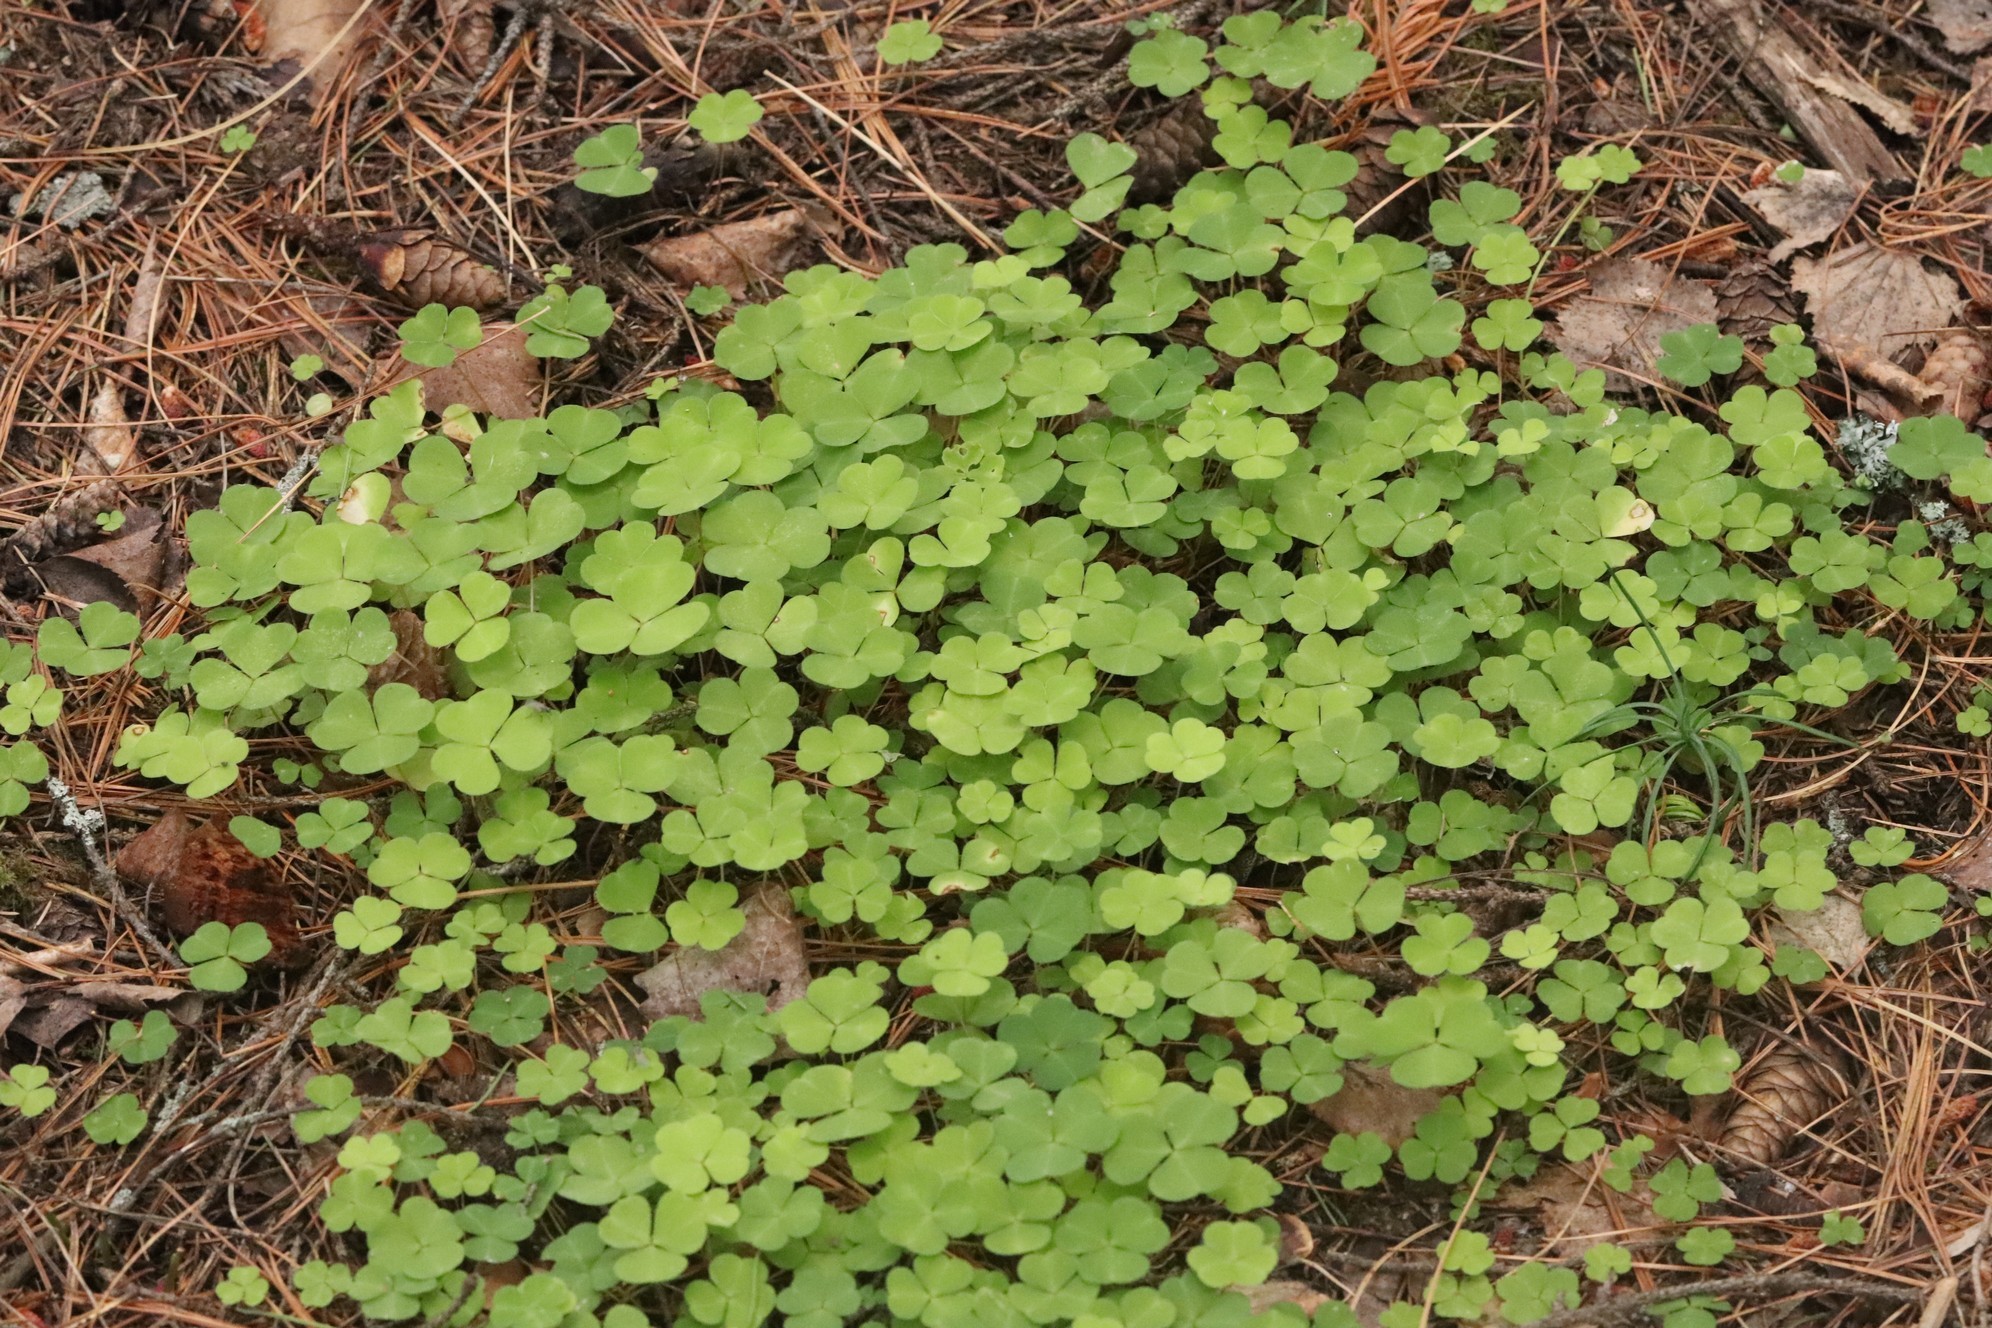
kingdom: Plantae
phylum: Tracheophyta
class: Magnoliopsida
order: Oxalidales
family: Oxalidaceae
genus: Oxalis
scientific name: Oxalis acetosella
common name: Wood-sorrel
